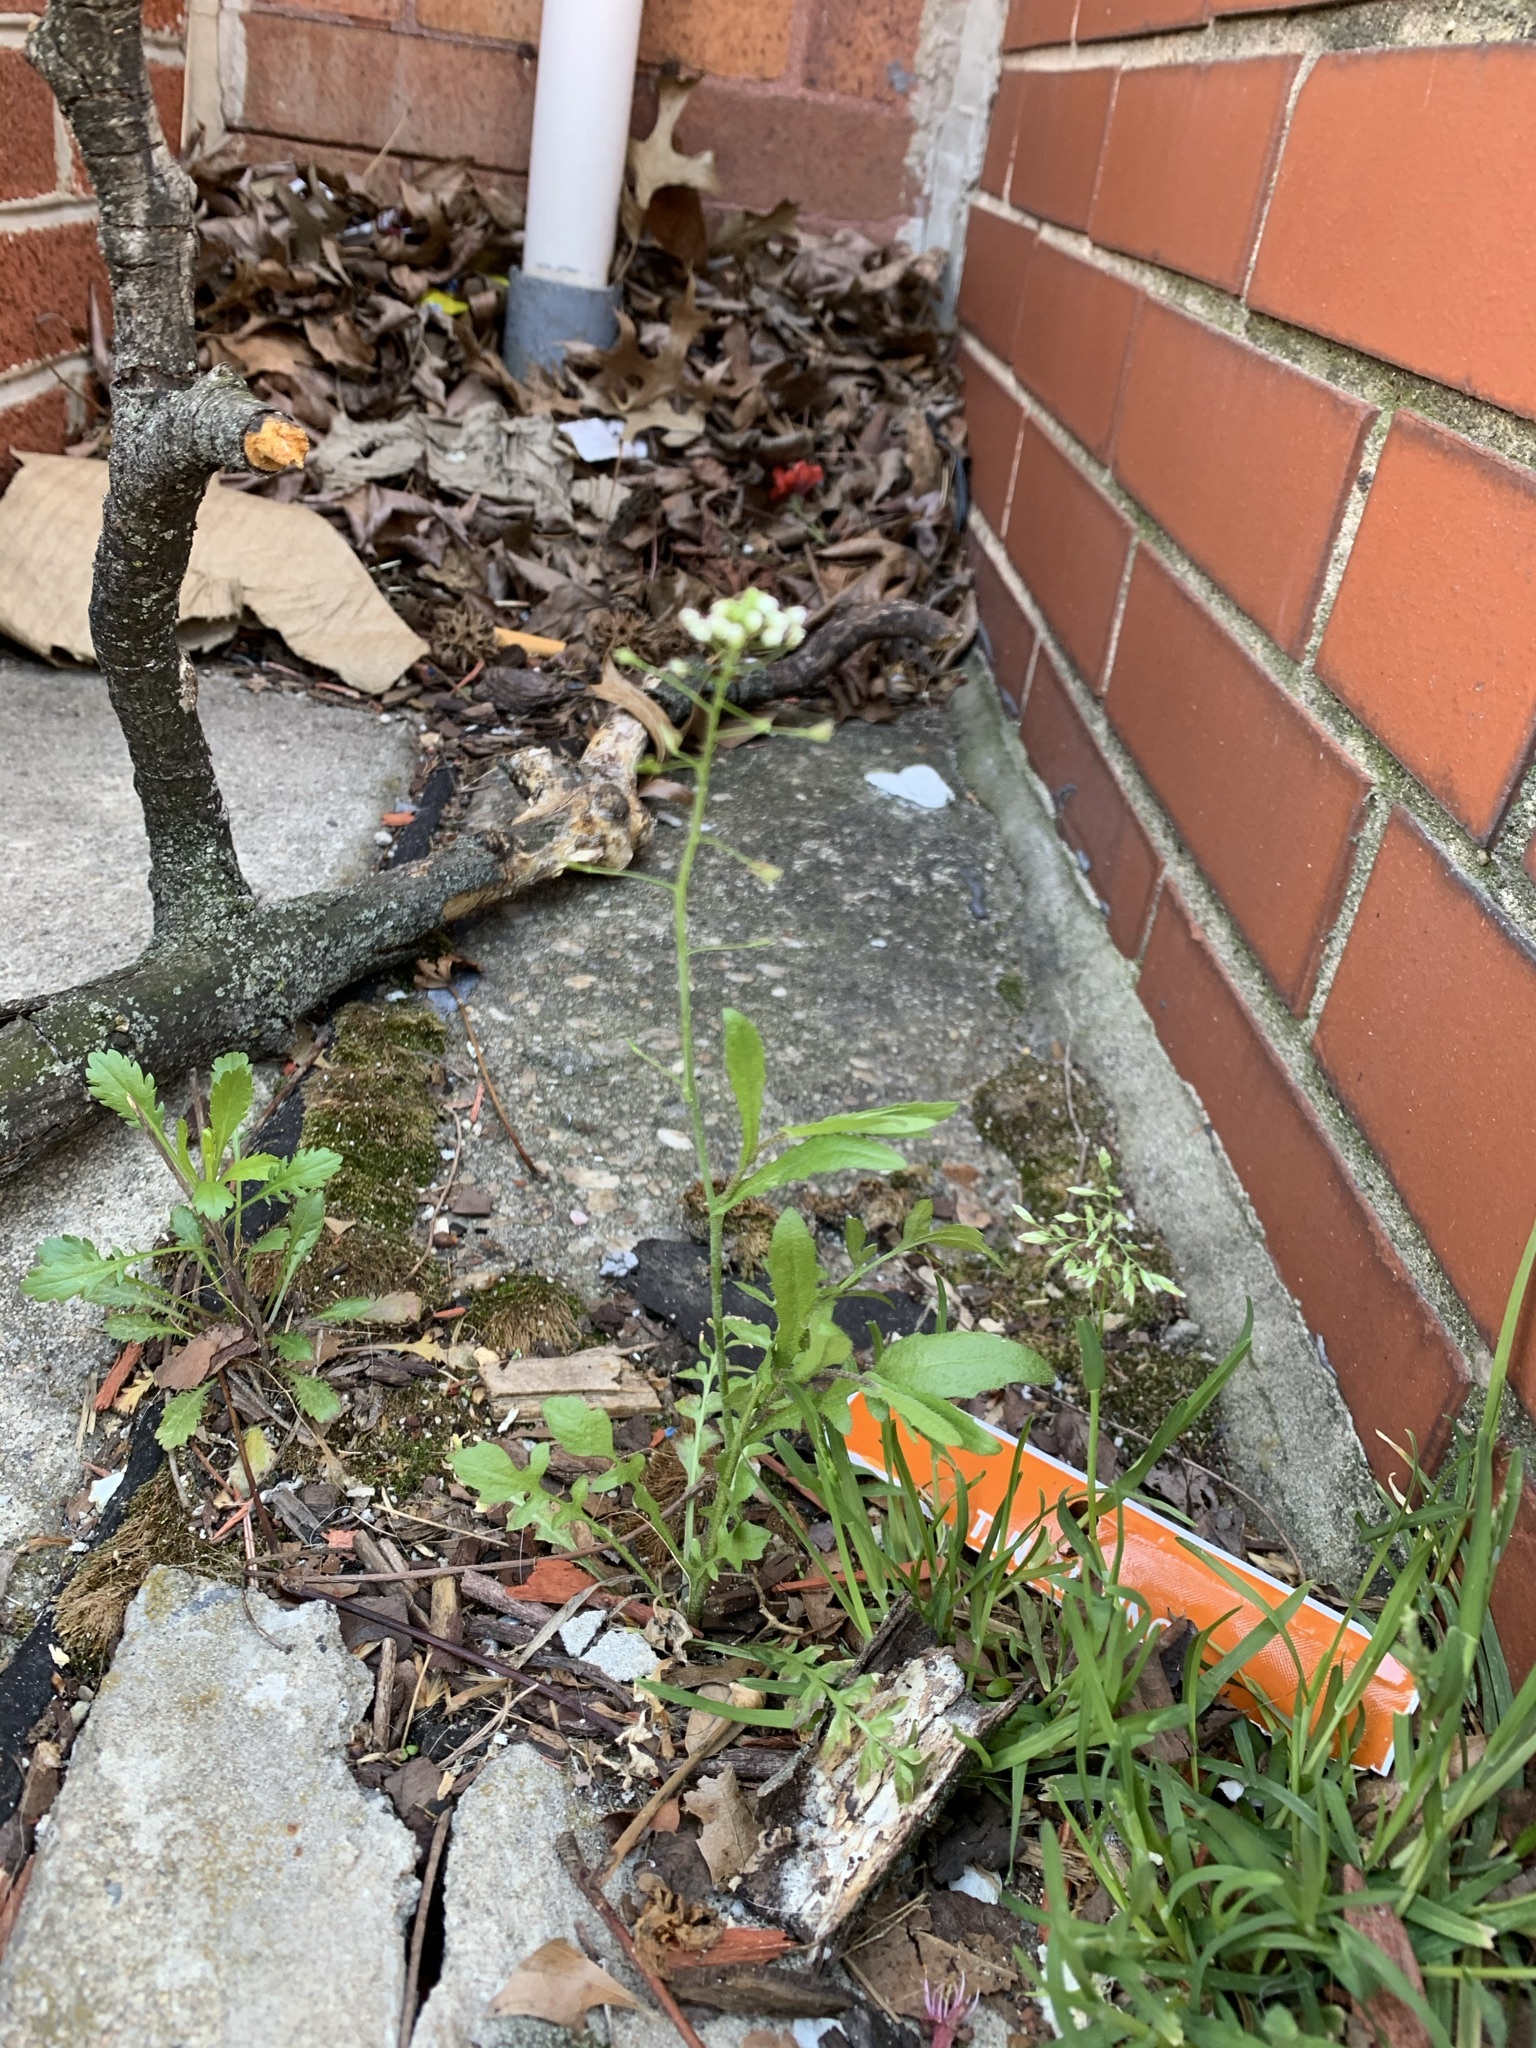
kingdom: Plantae
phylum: Tracheophyta
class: Magnoliopsida
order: Brassicales
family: Brassicaceae
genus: Capsella
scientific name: Capsella bursa-pastoris
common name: Shepherd's purse
